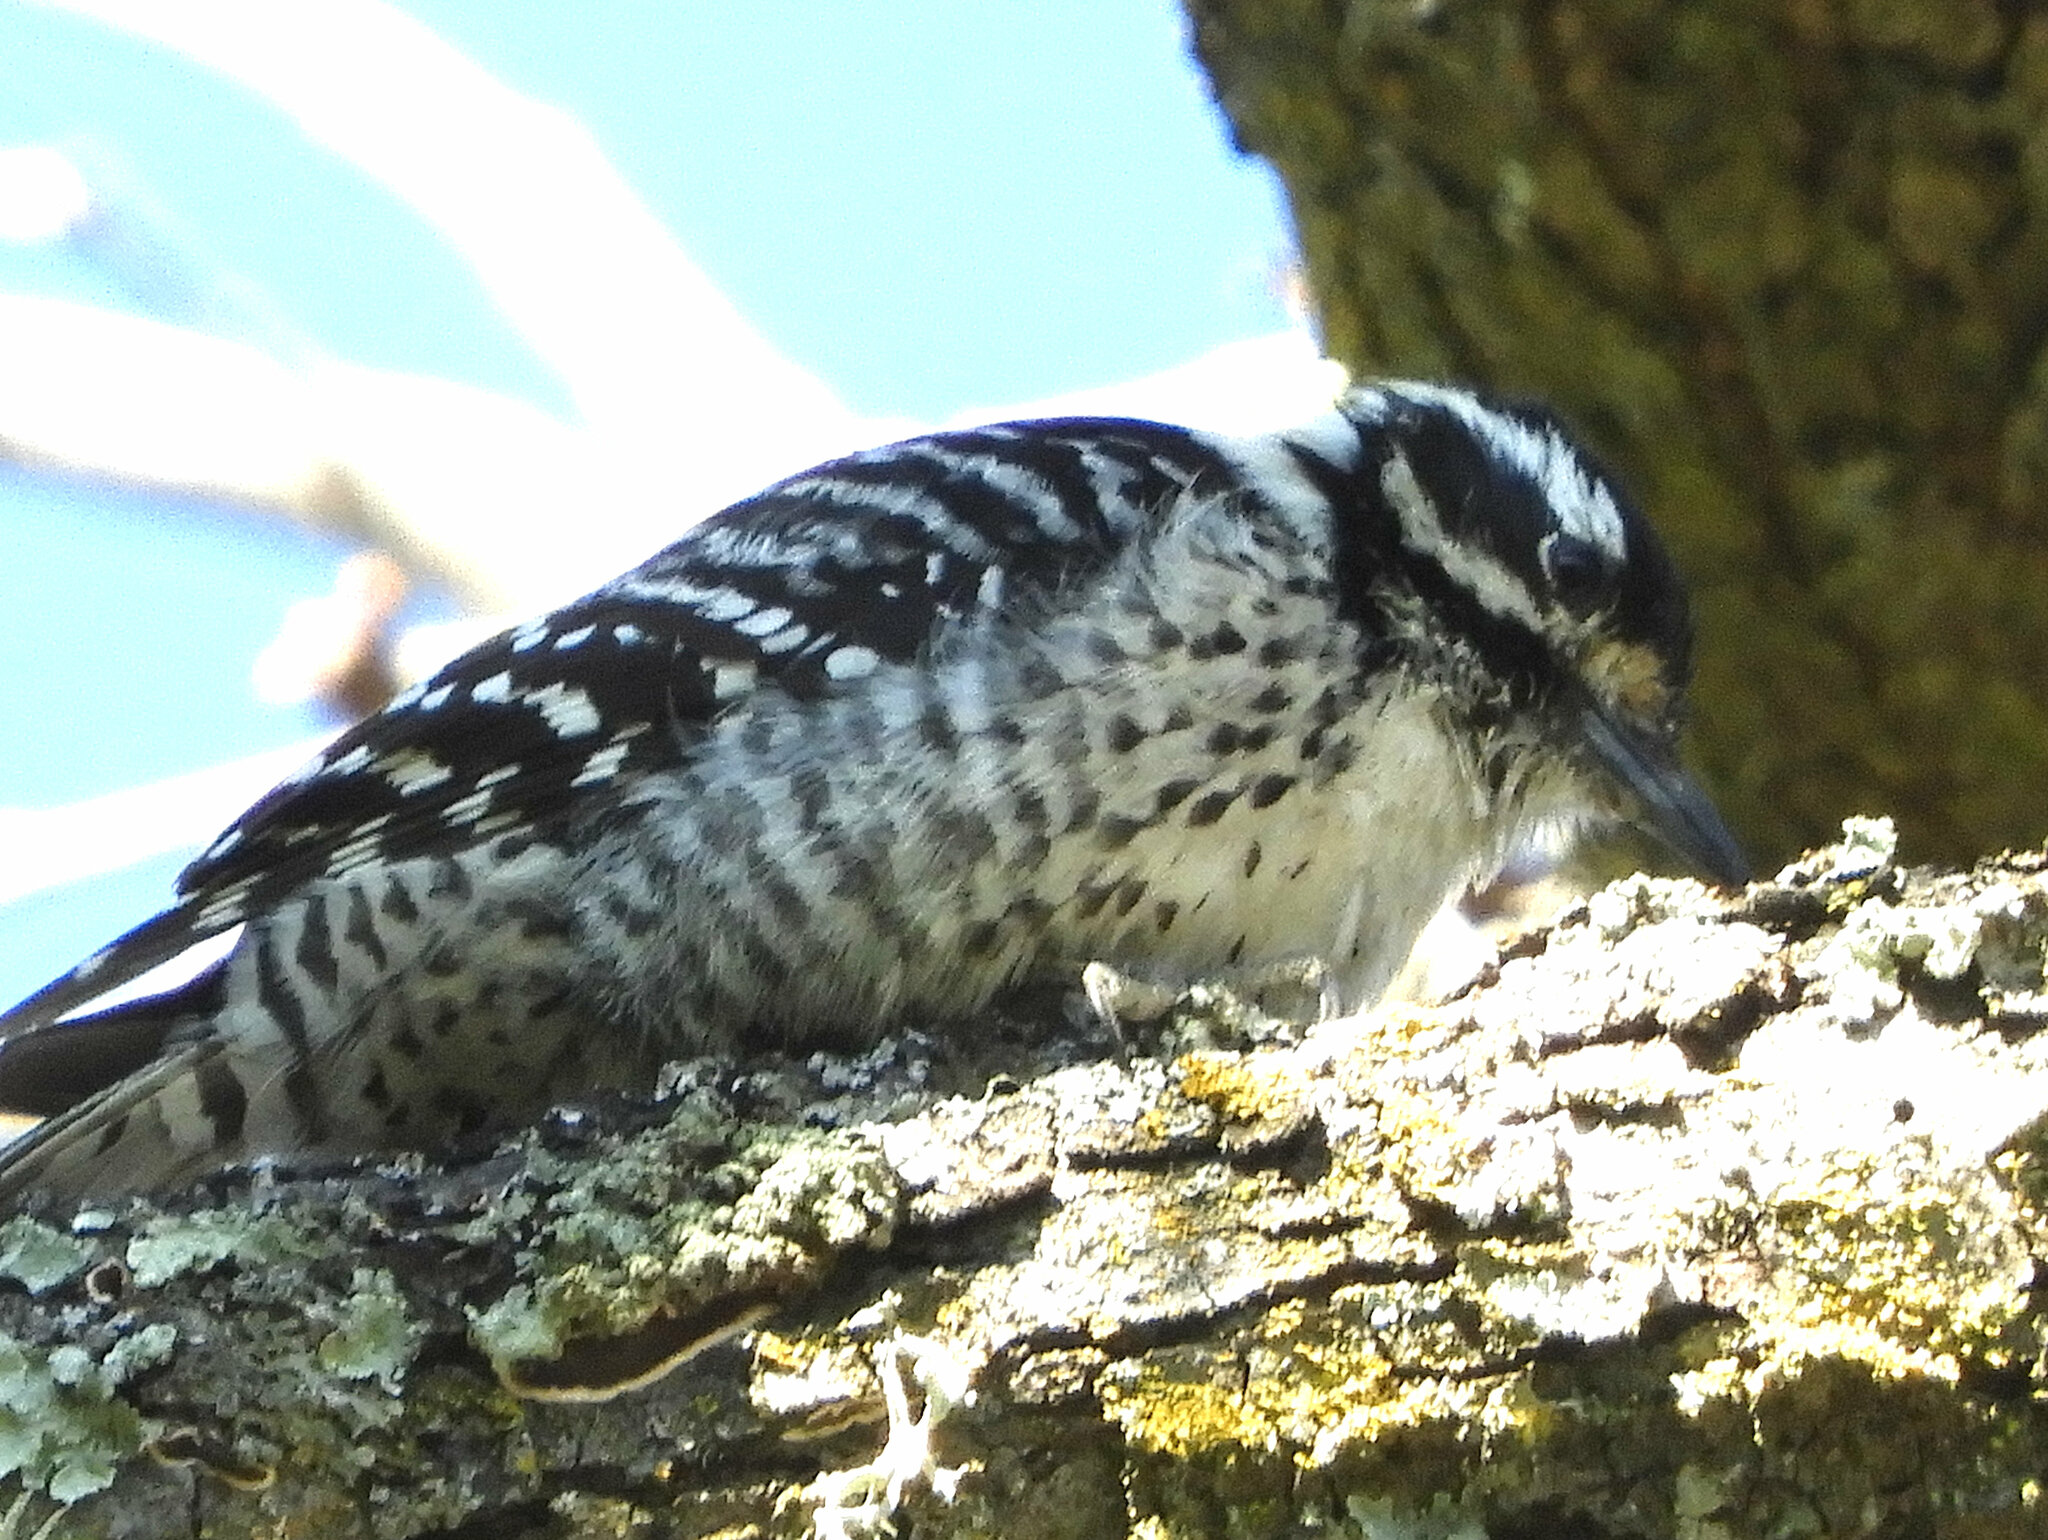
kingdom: Animalia
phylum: Chordata
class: Aves
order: Piciformes
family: Picidae
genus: Dryobates
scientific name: Dryobates nuttallii
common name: Nuttall's woodpecker
